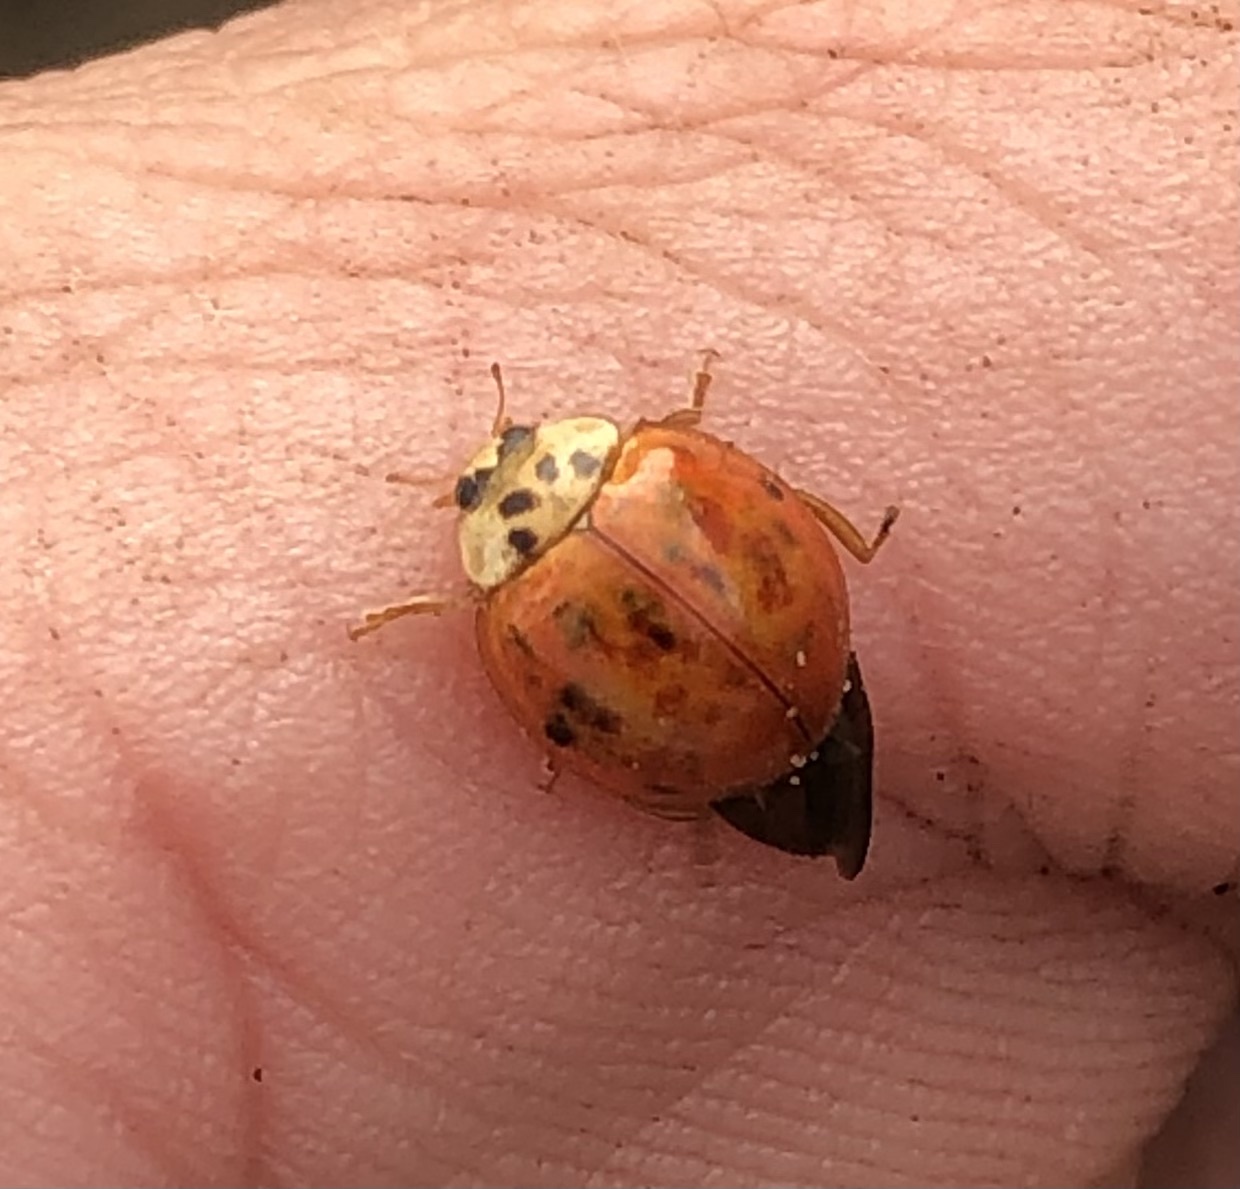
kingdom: Animalia
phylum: Arthropoda
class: Insecta
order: Coleoptera
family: Coccinellidae
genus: Harmonia
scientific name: Harmonia axyridis
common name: Harlequin ladybird
